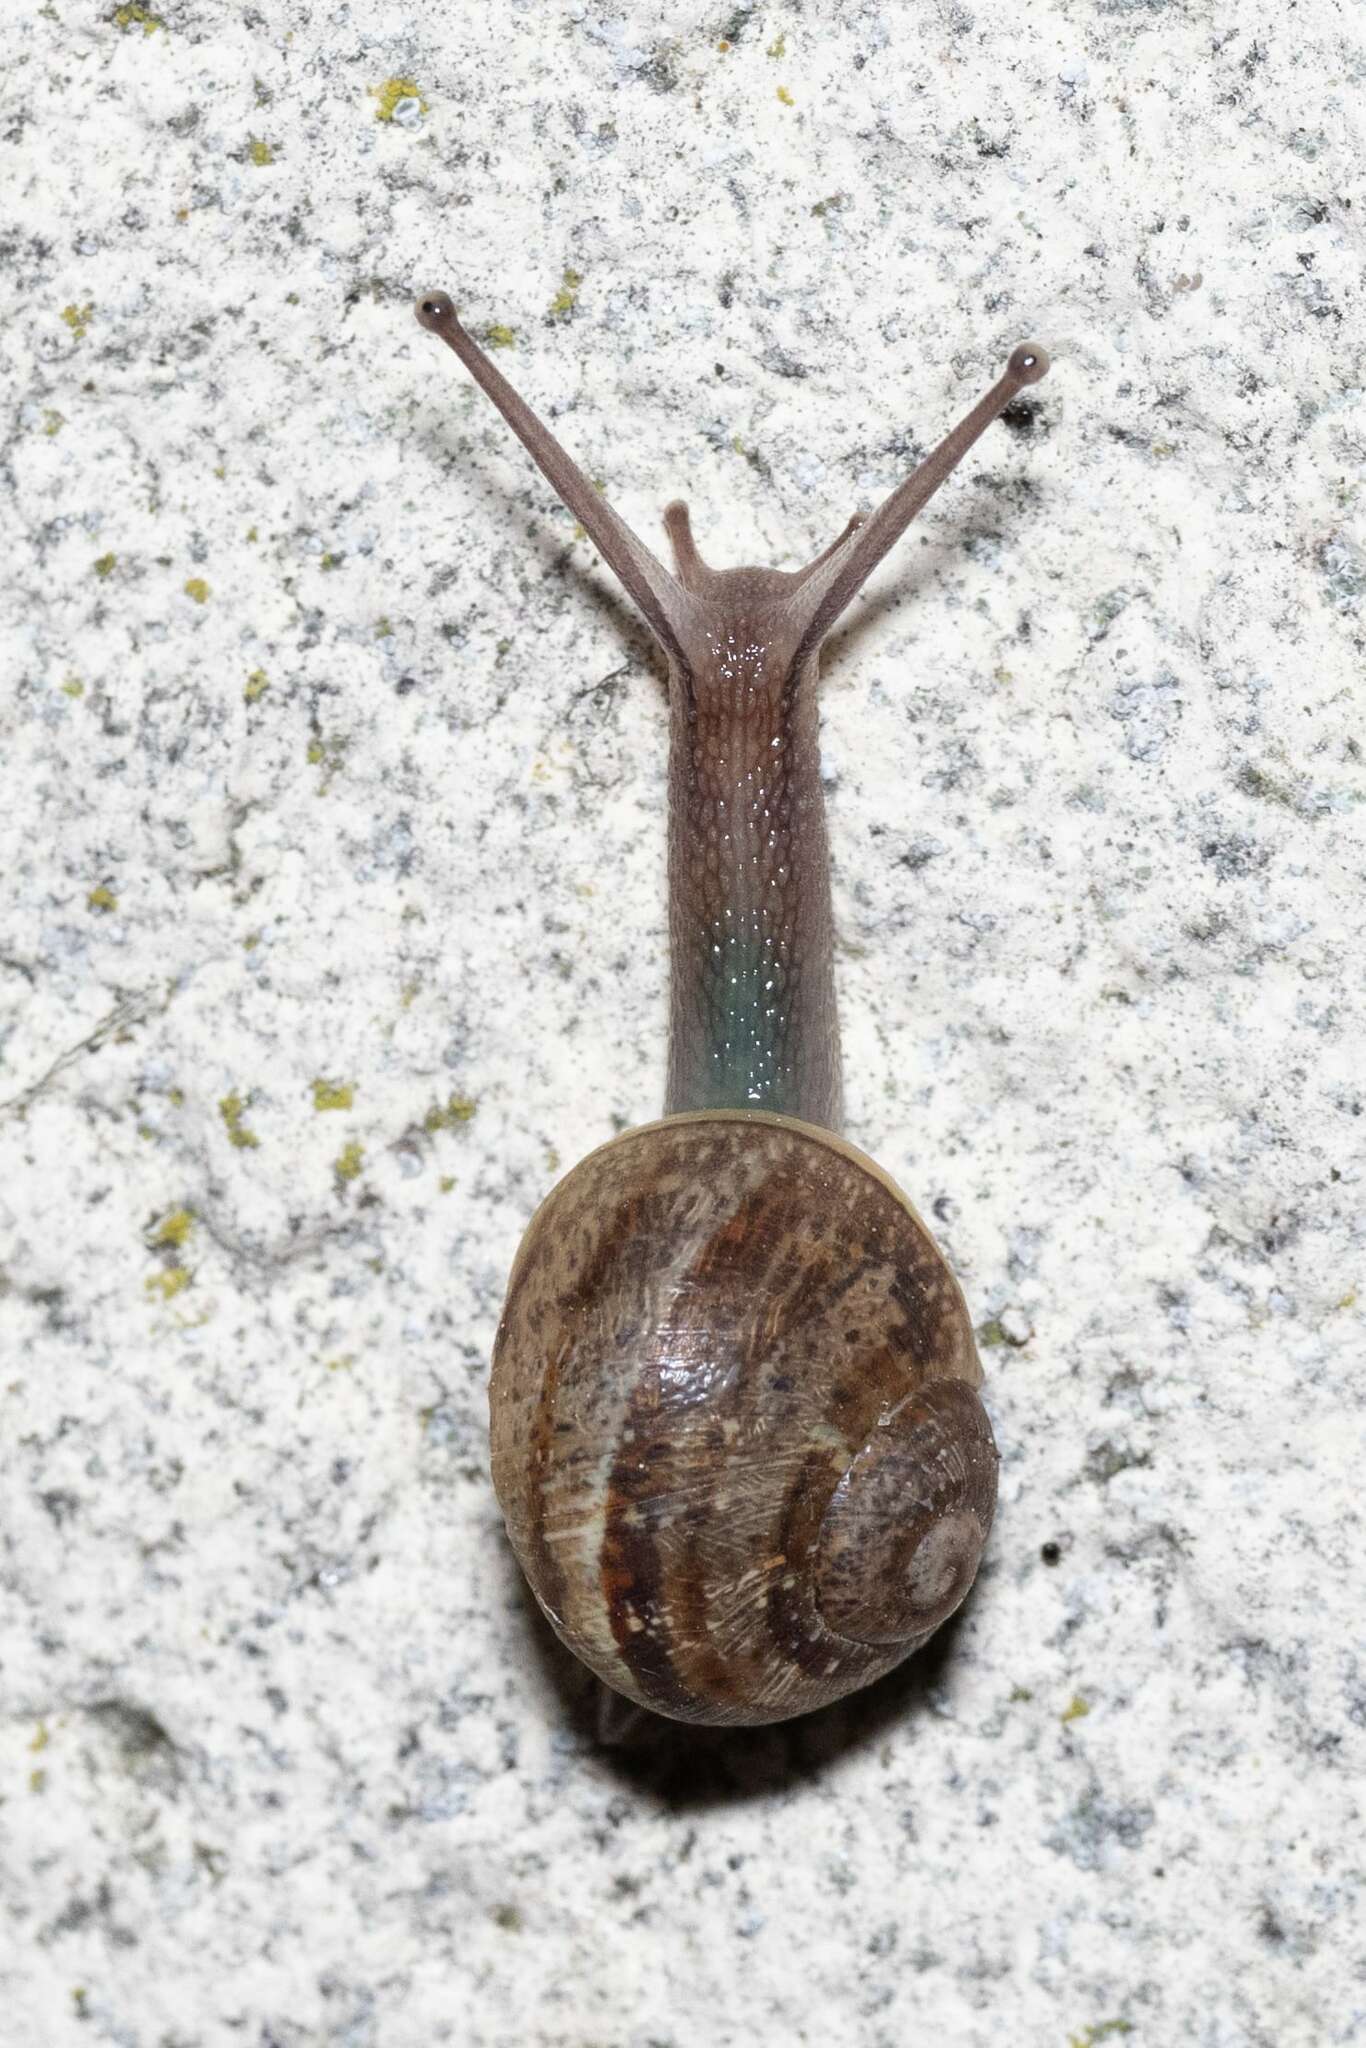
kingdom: Animalia
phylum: Mollusca
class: Gastropoda
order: Stylommatophora
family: Helicidae
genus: Cornu
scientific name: Cornu aspersum
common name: Brown garden snail
